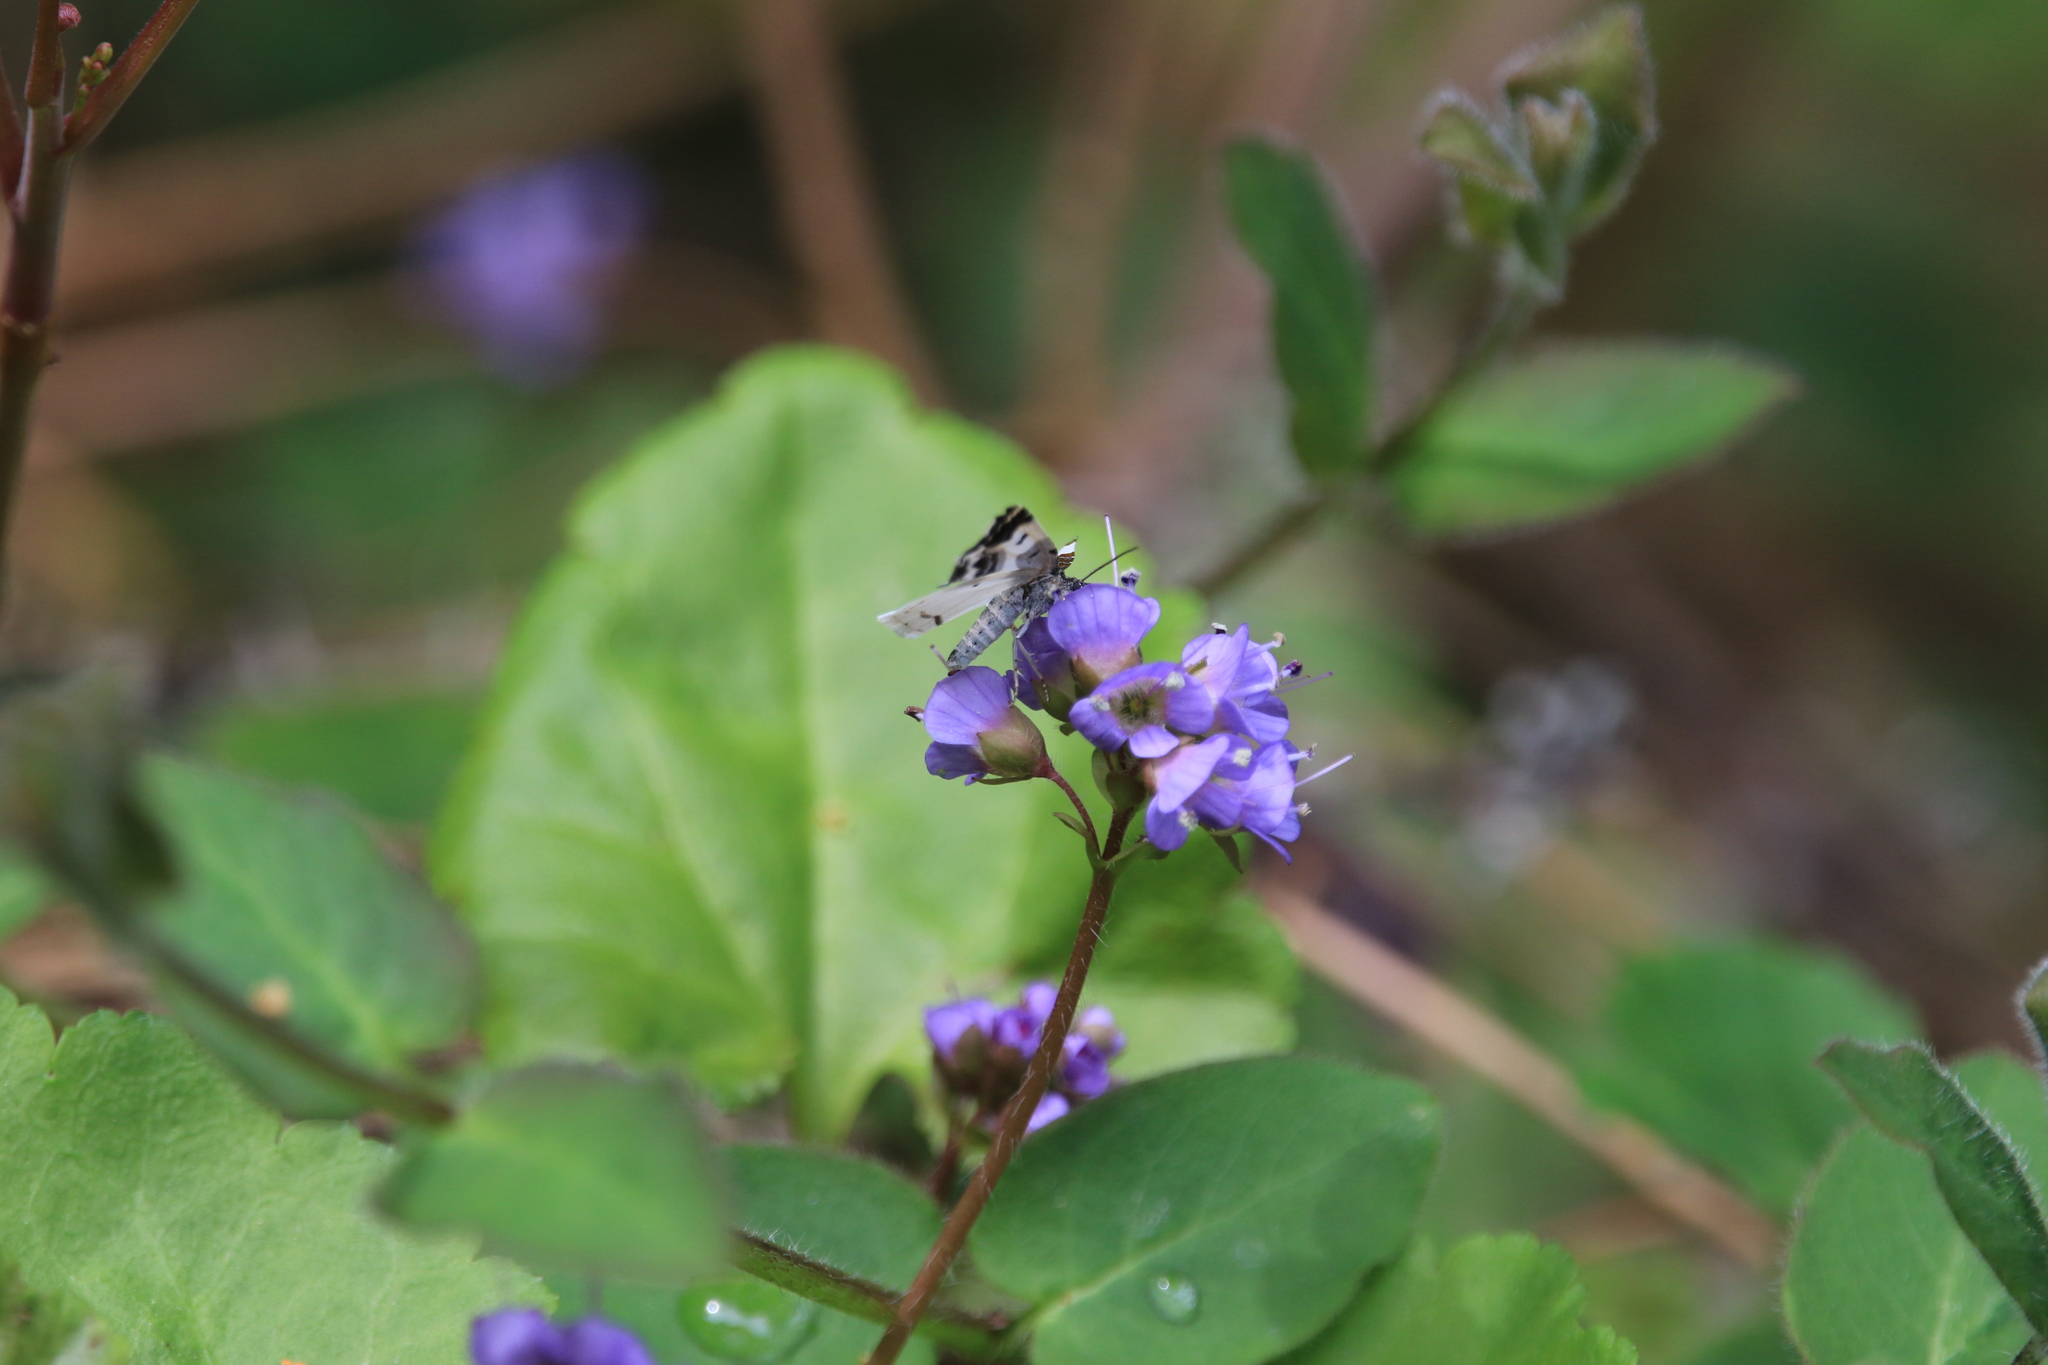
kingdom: Animalia
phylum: Arthropoda
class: Insecta
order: Lepidoptera
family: Geometridae
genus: Mesoleuca
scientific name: Mesoleuca gratulata
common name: Half-white carpet moth
